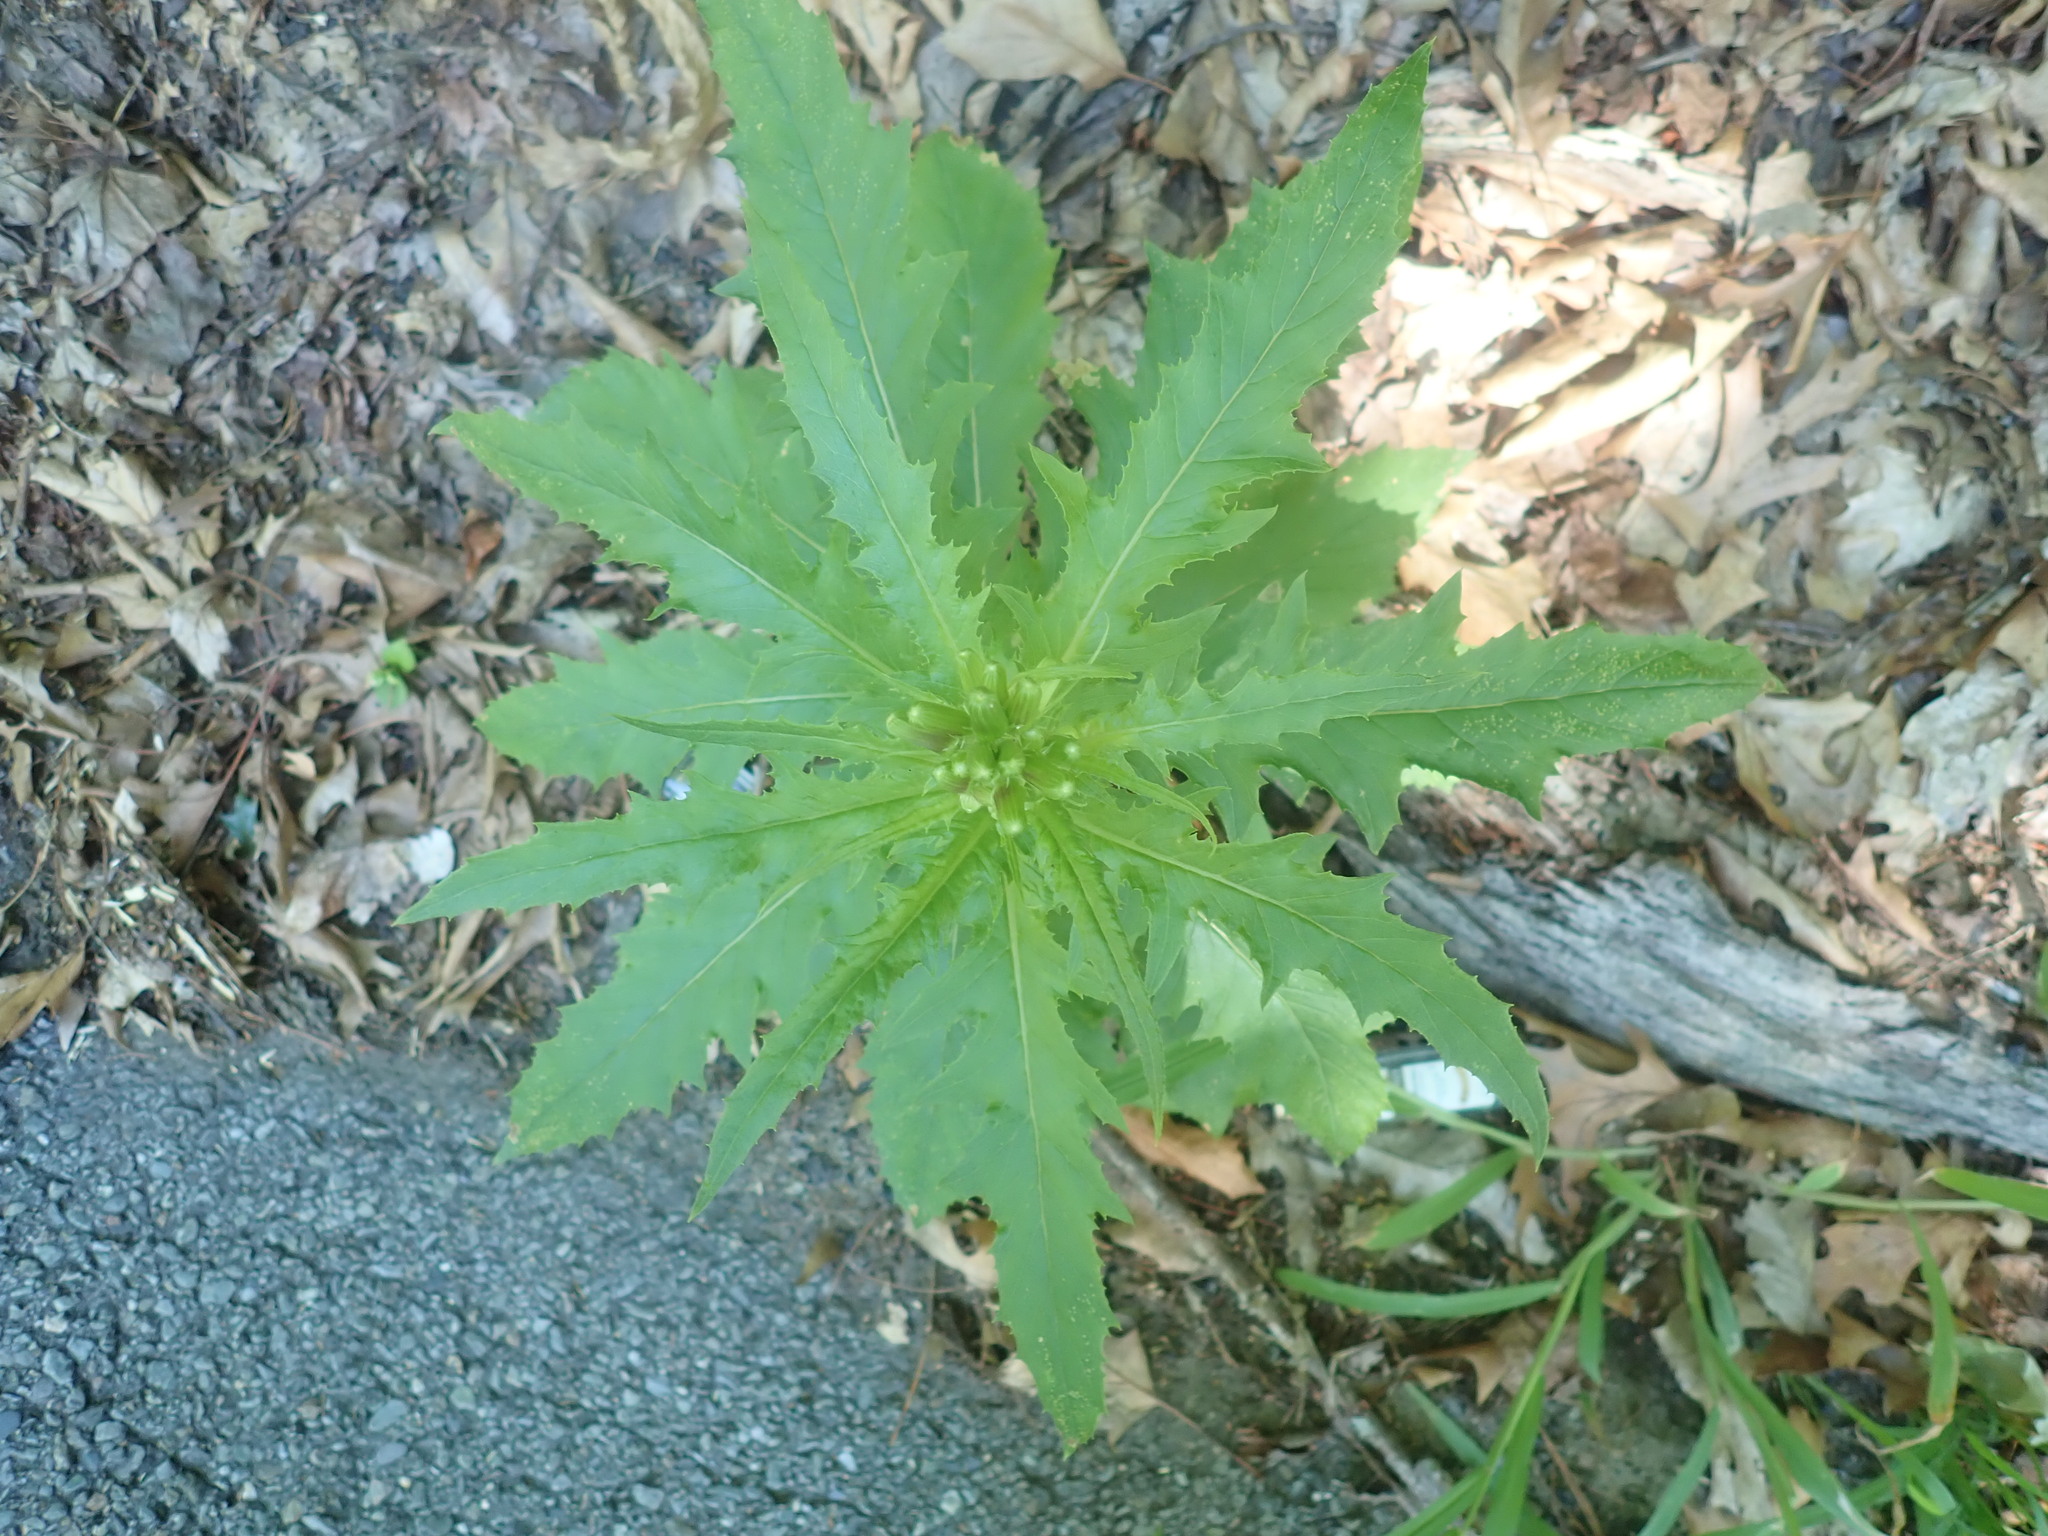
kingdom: Plantae
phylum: Tracheophyta
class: Magnoliopsida
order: Asterales
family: Asteraceae
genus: Erechtites
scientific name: Erechtites hieraciifolius
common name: American burnweed
